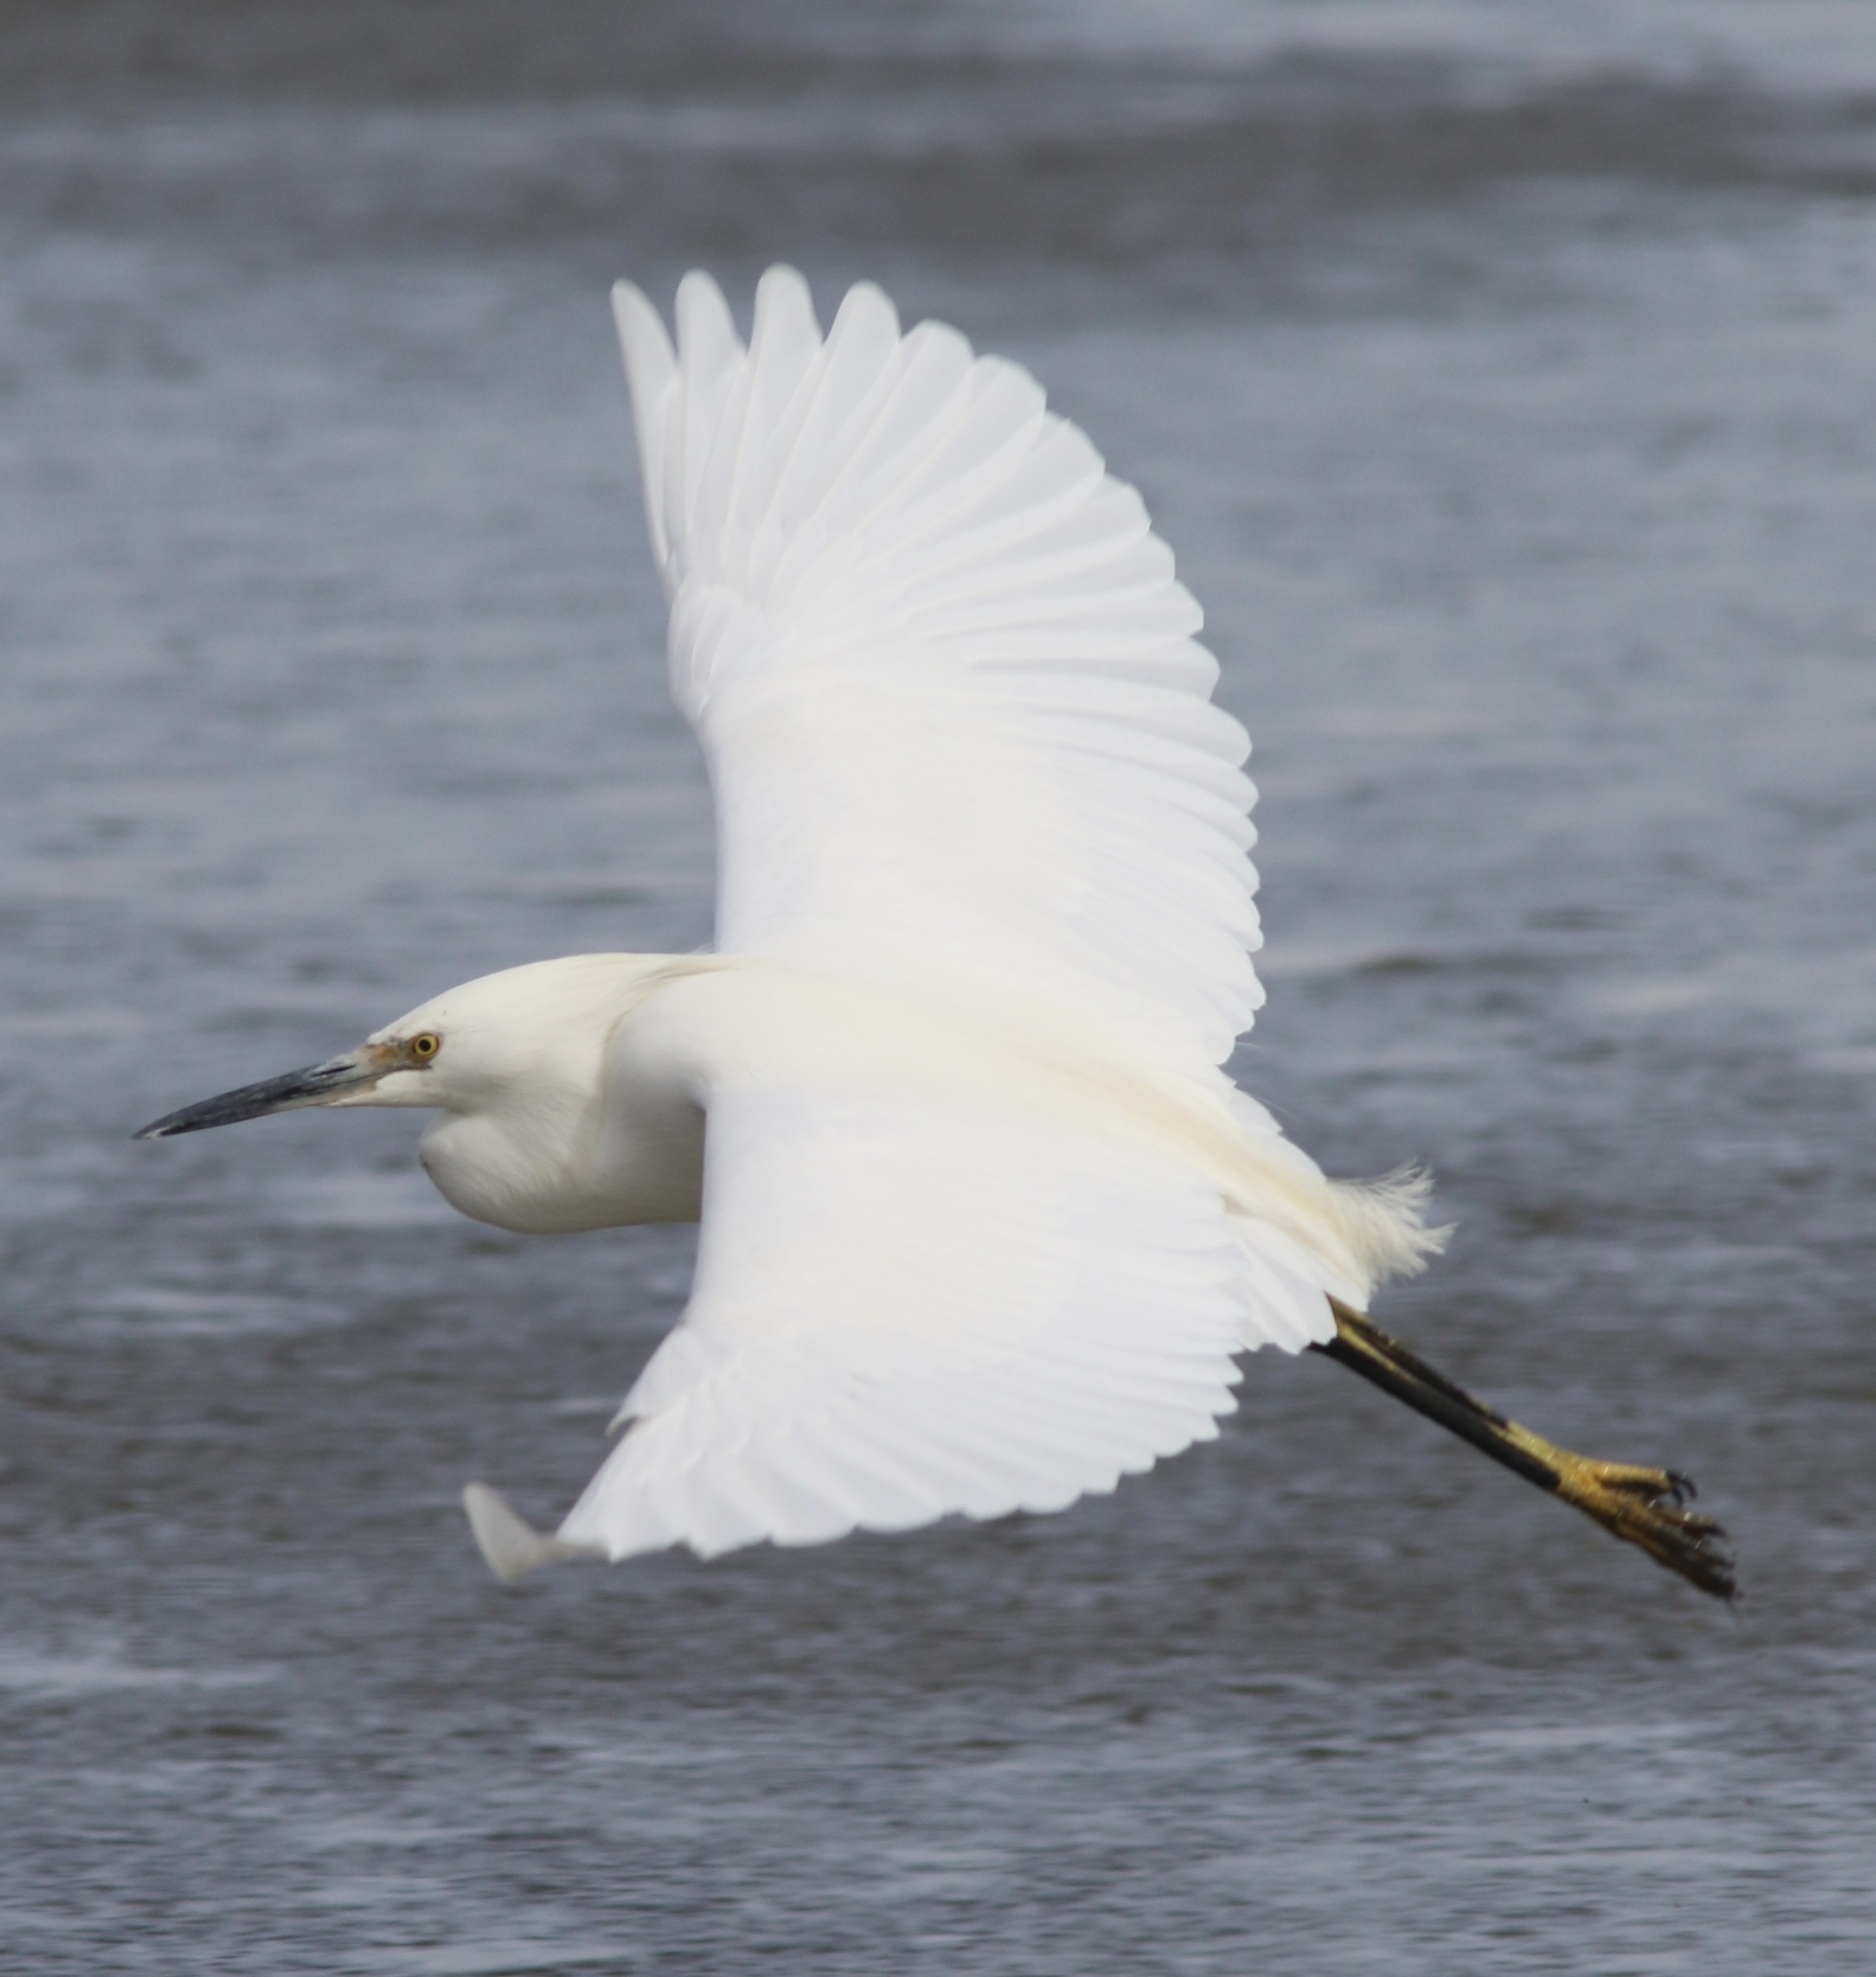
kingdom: Animalia
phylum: Chordata
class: Aves
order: Pelecaniformes
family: Ardeidae
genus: Egretta
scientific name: Egretta thula
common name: Snowy egret
